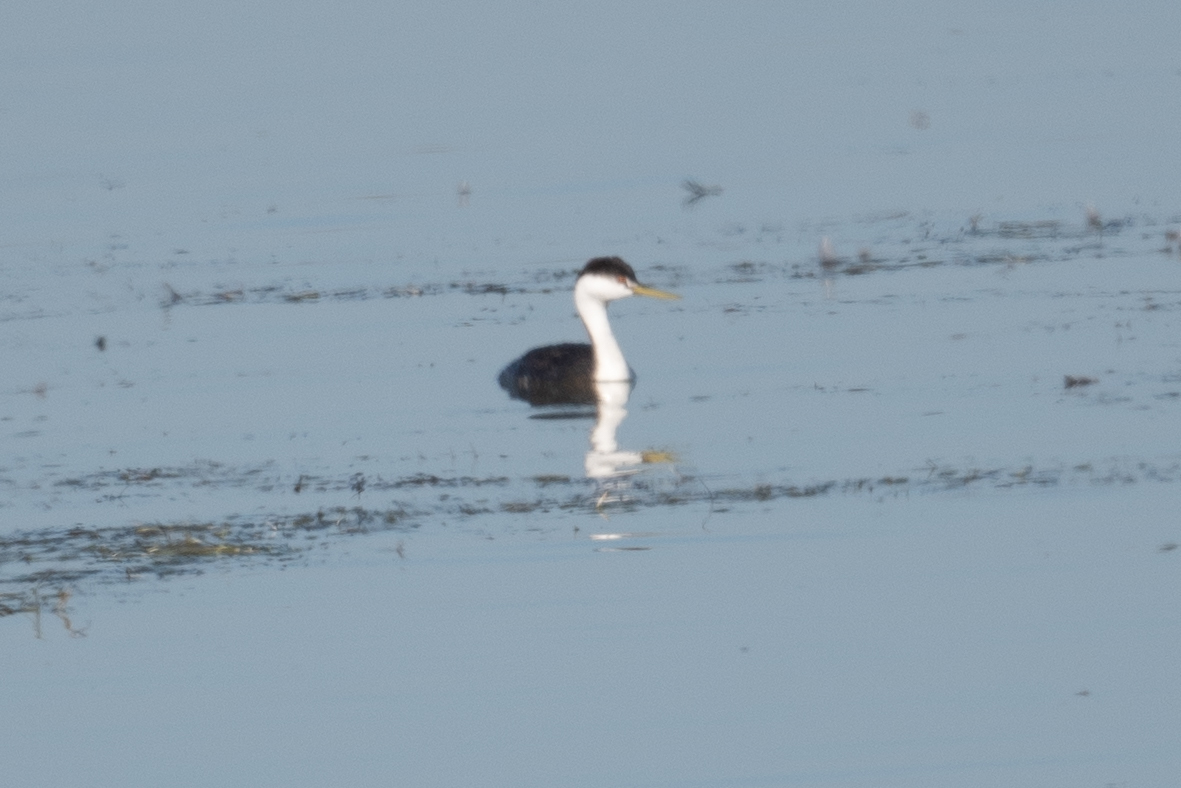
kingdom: Animalia
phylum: Chordata
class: Aves
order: Podicipediformes
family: Podicipedidae
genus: Aechmophorus
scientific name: Aechmophorus occidentalis
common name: Western grebe
